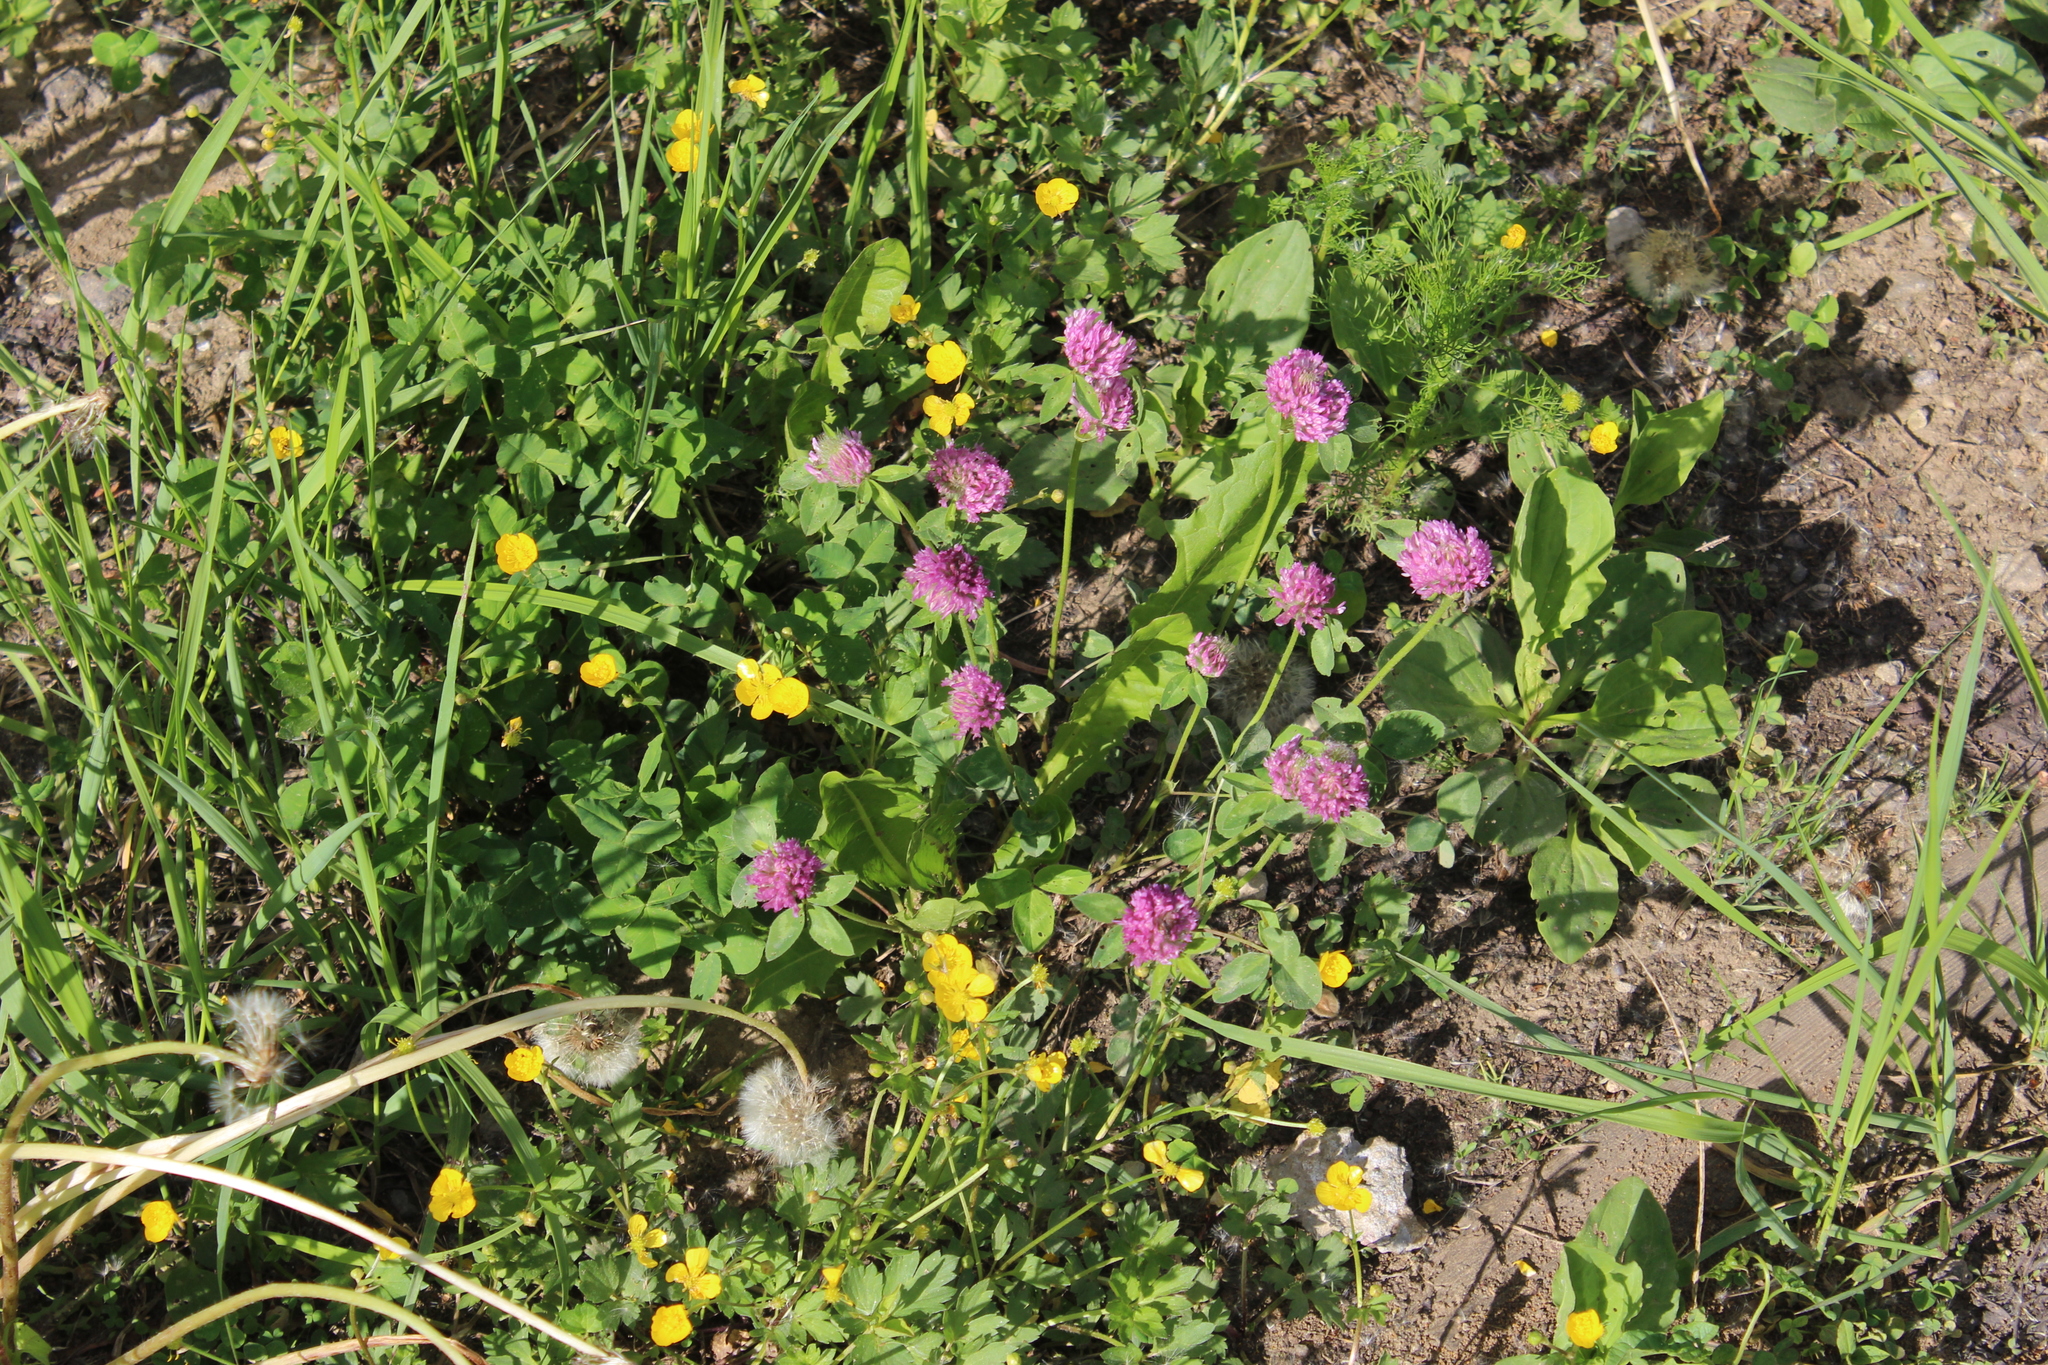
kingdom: Plantae
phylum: Tracheophyta
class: Magnoliopsida
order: Fabales
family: Fabaceae
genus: Trifolium
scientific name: Trifolium pratense
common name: Red clover
